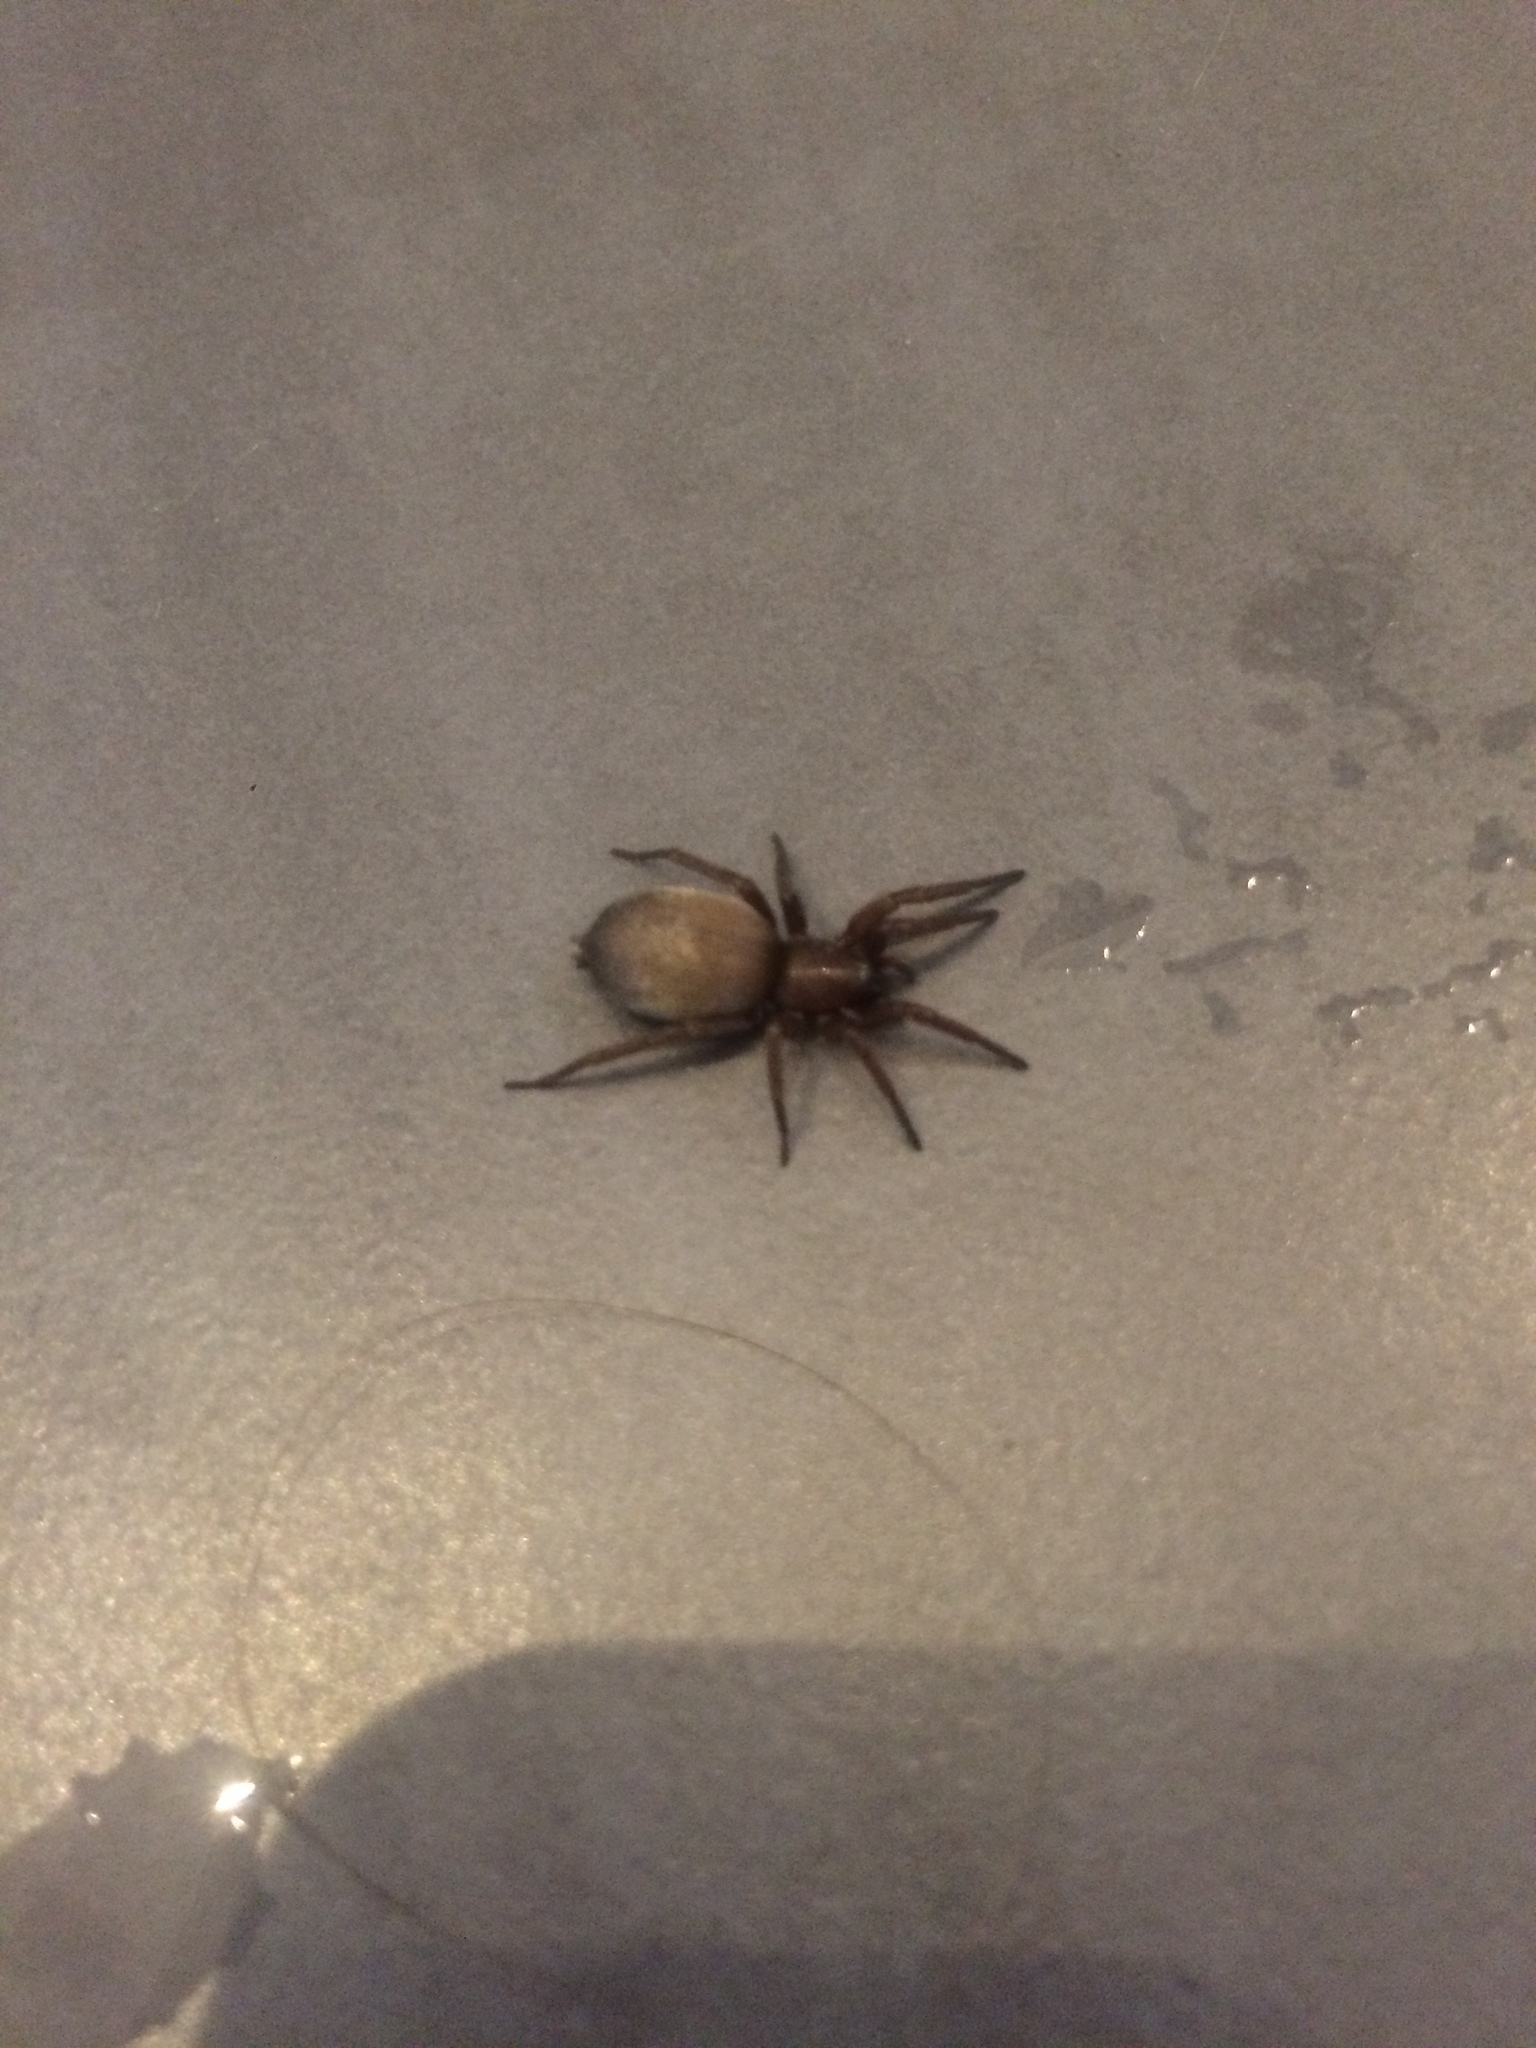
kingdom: Animalia
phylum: Arthropoda
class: Arachnida
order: Araneae
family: Gnaphosidae
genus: Scotophaeus
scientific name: Scotophaeus blackwalli
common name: Mouse spider
